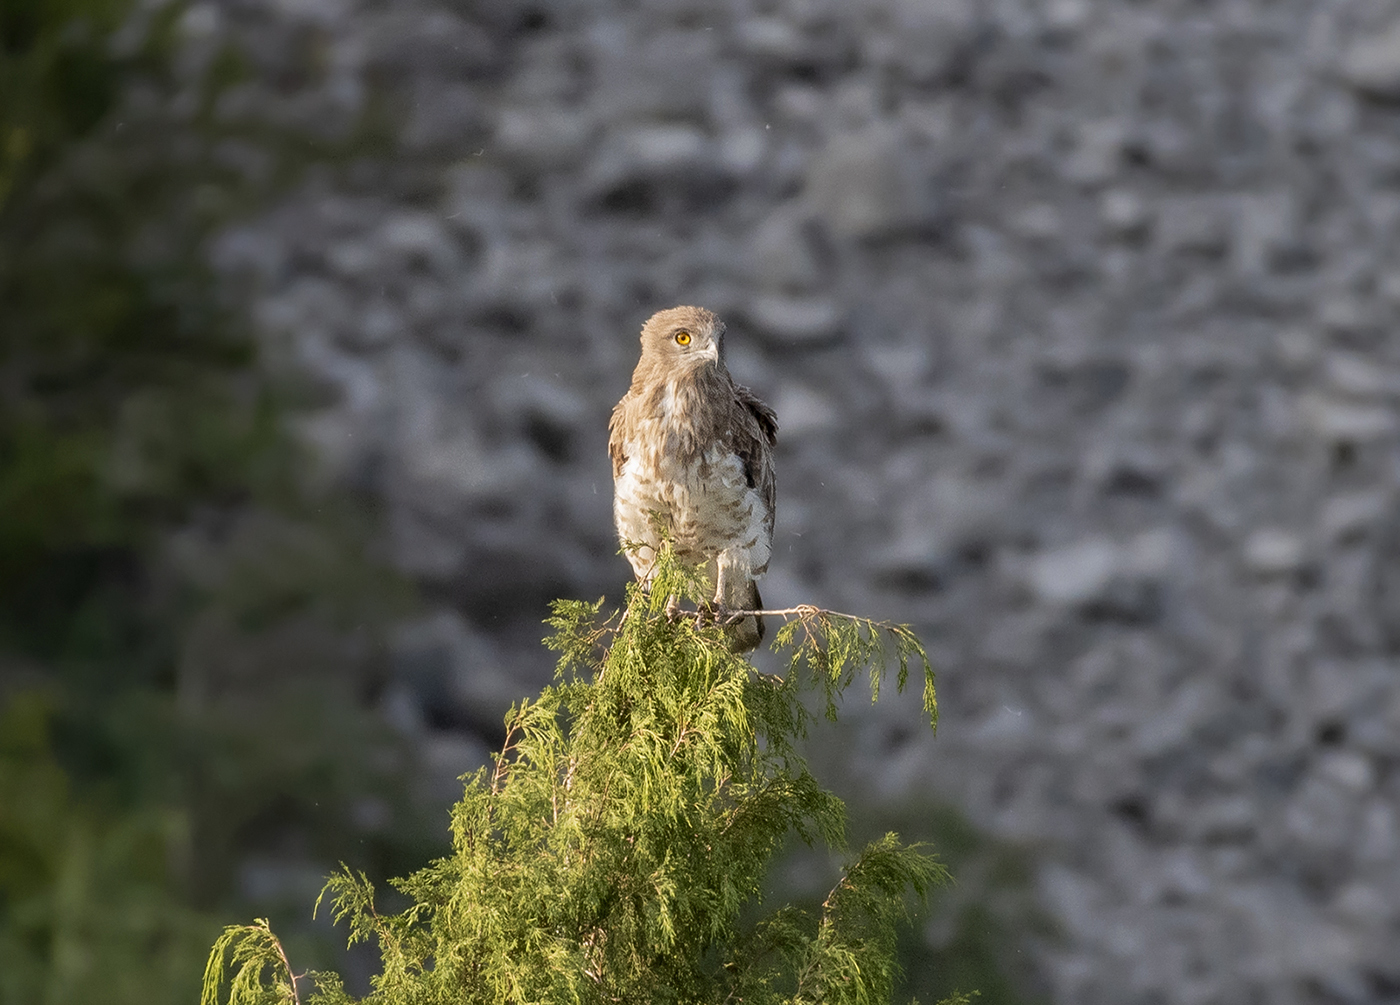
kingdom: Animalia
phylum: Chordata
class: Aves
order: Accipitriformes
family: Accipitridae
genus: Circaetus
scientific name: Circaetus gallicus
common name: Short-toed snake eagle
